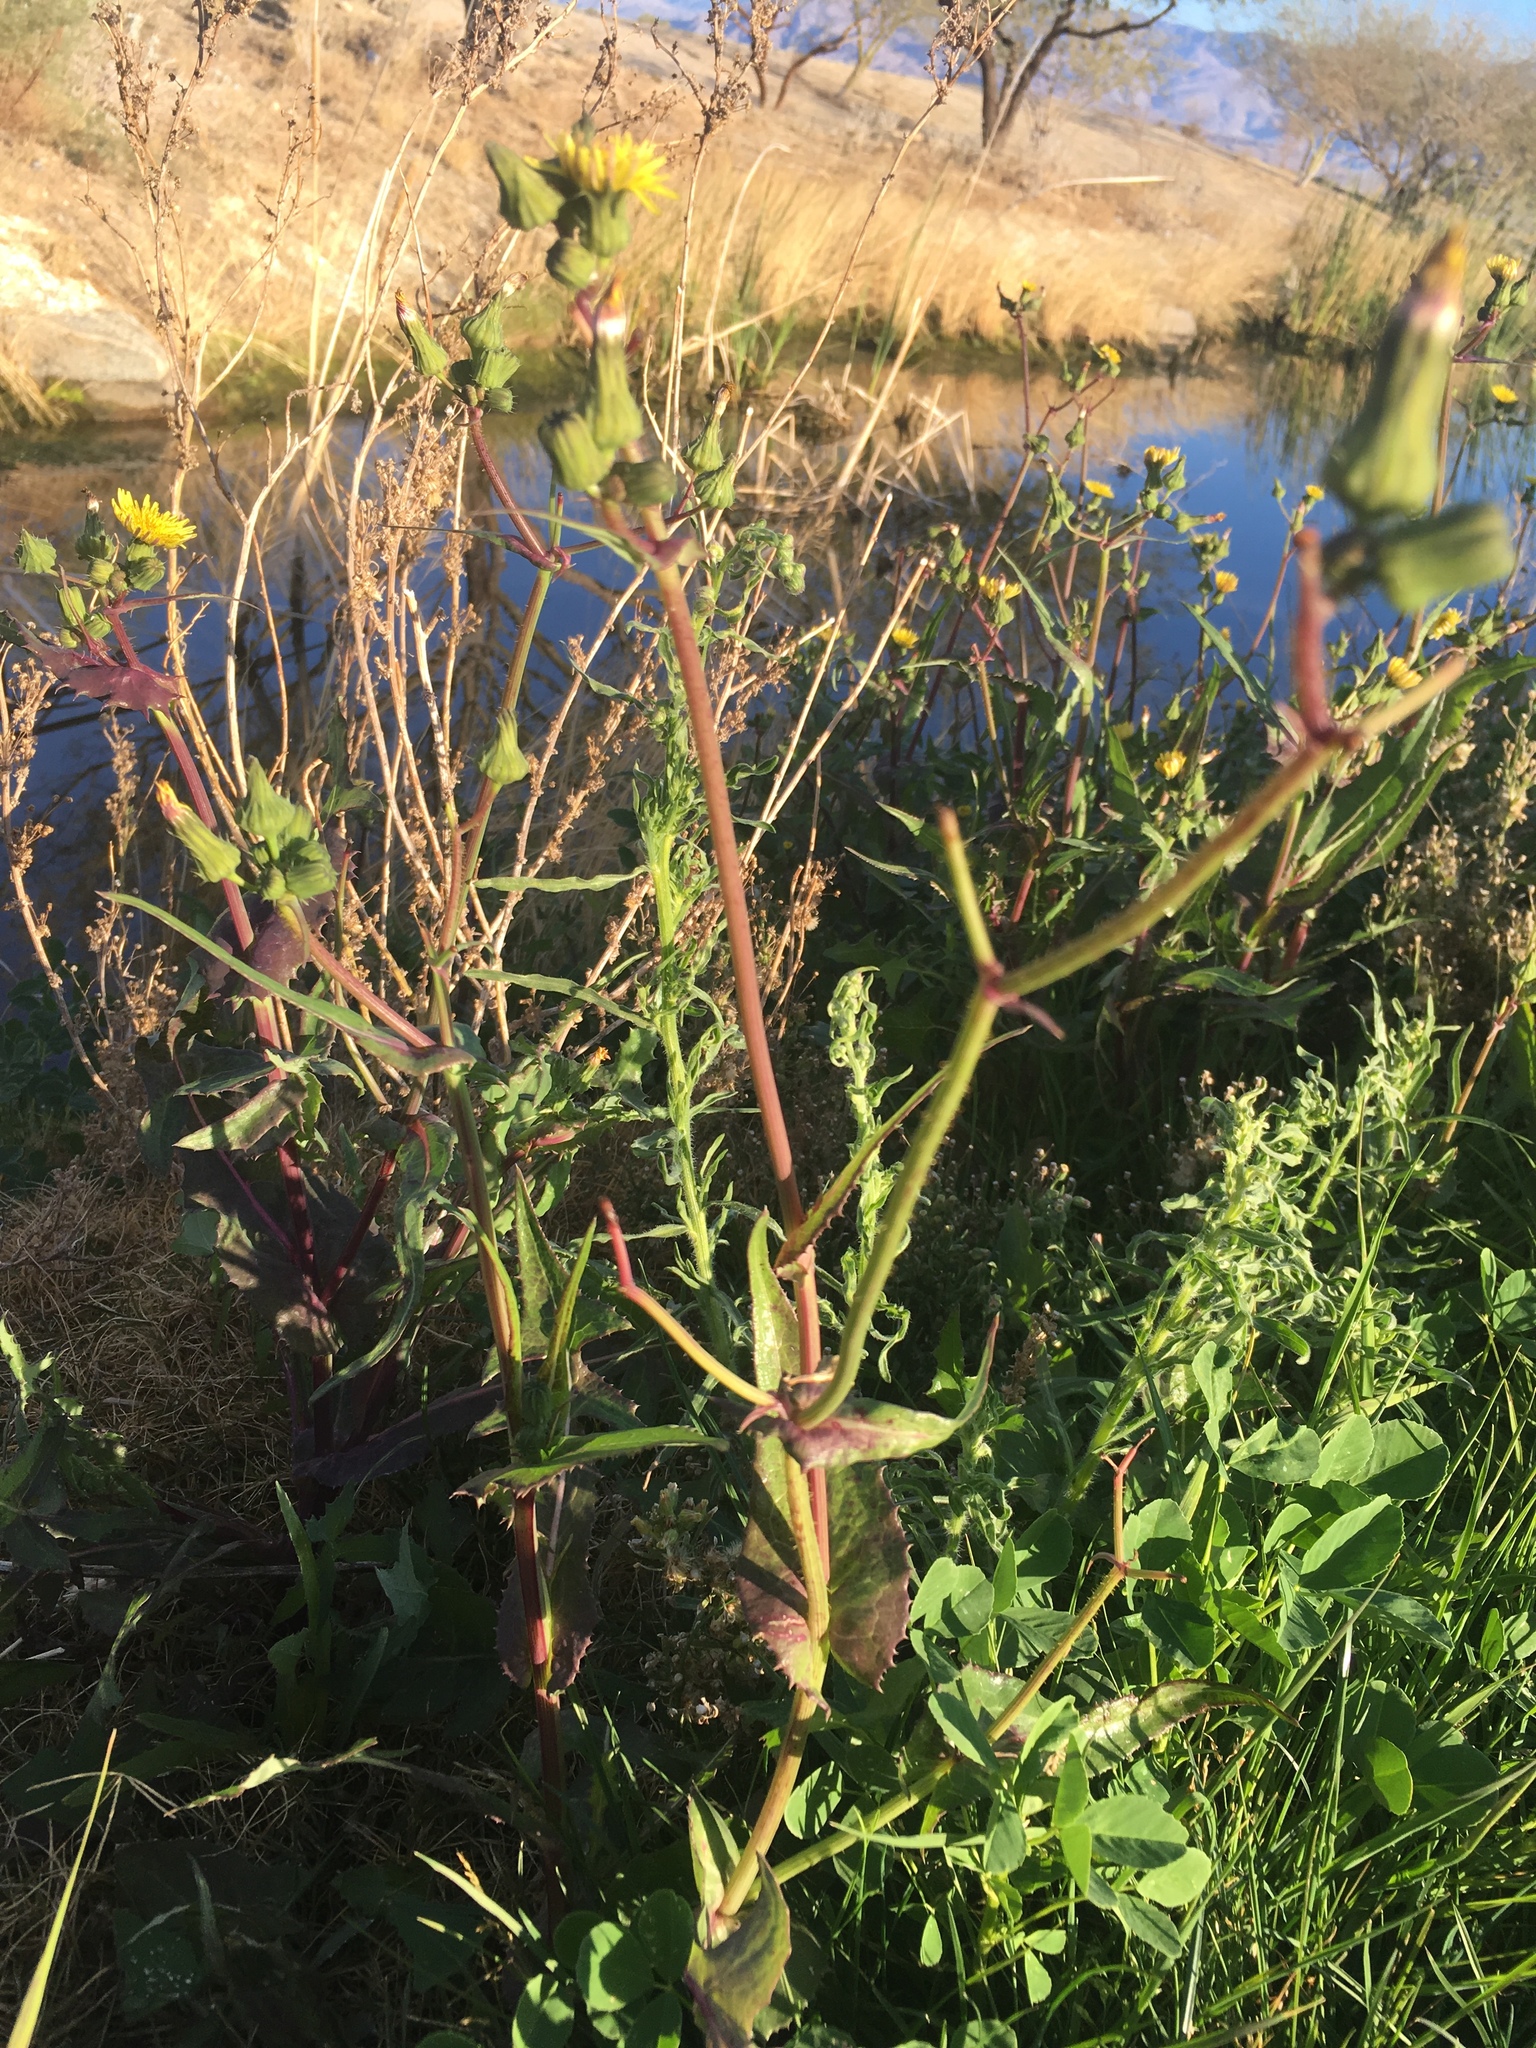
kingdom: Plantae
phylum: Tracheophyta
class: Magnoliopsida
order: Asterales
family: Asteraceae
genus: Sonchus
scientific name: Sonchus oleraceus
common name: Common sowthistle
